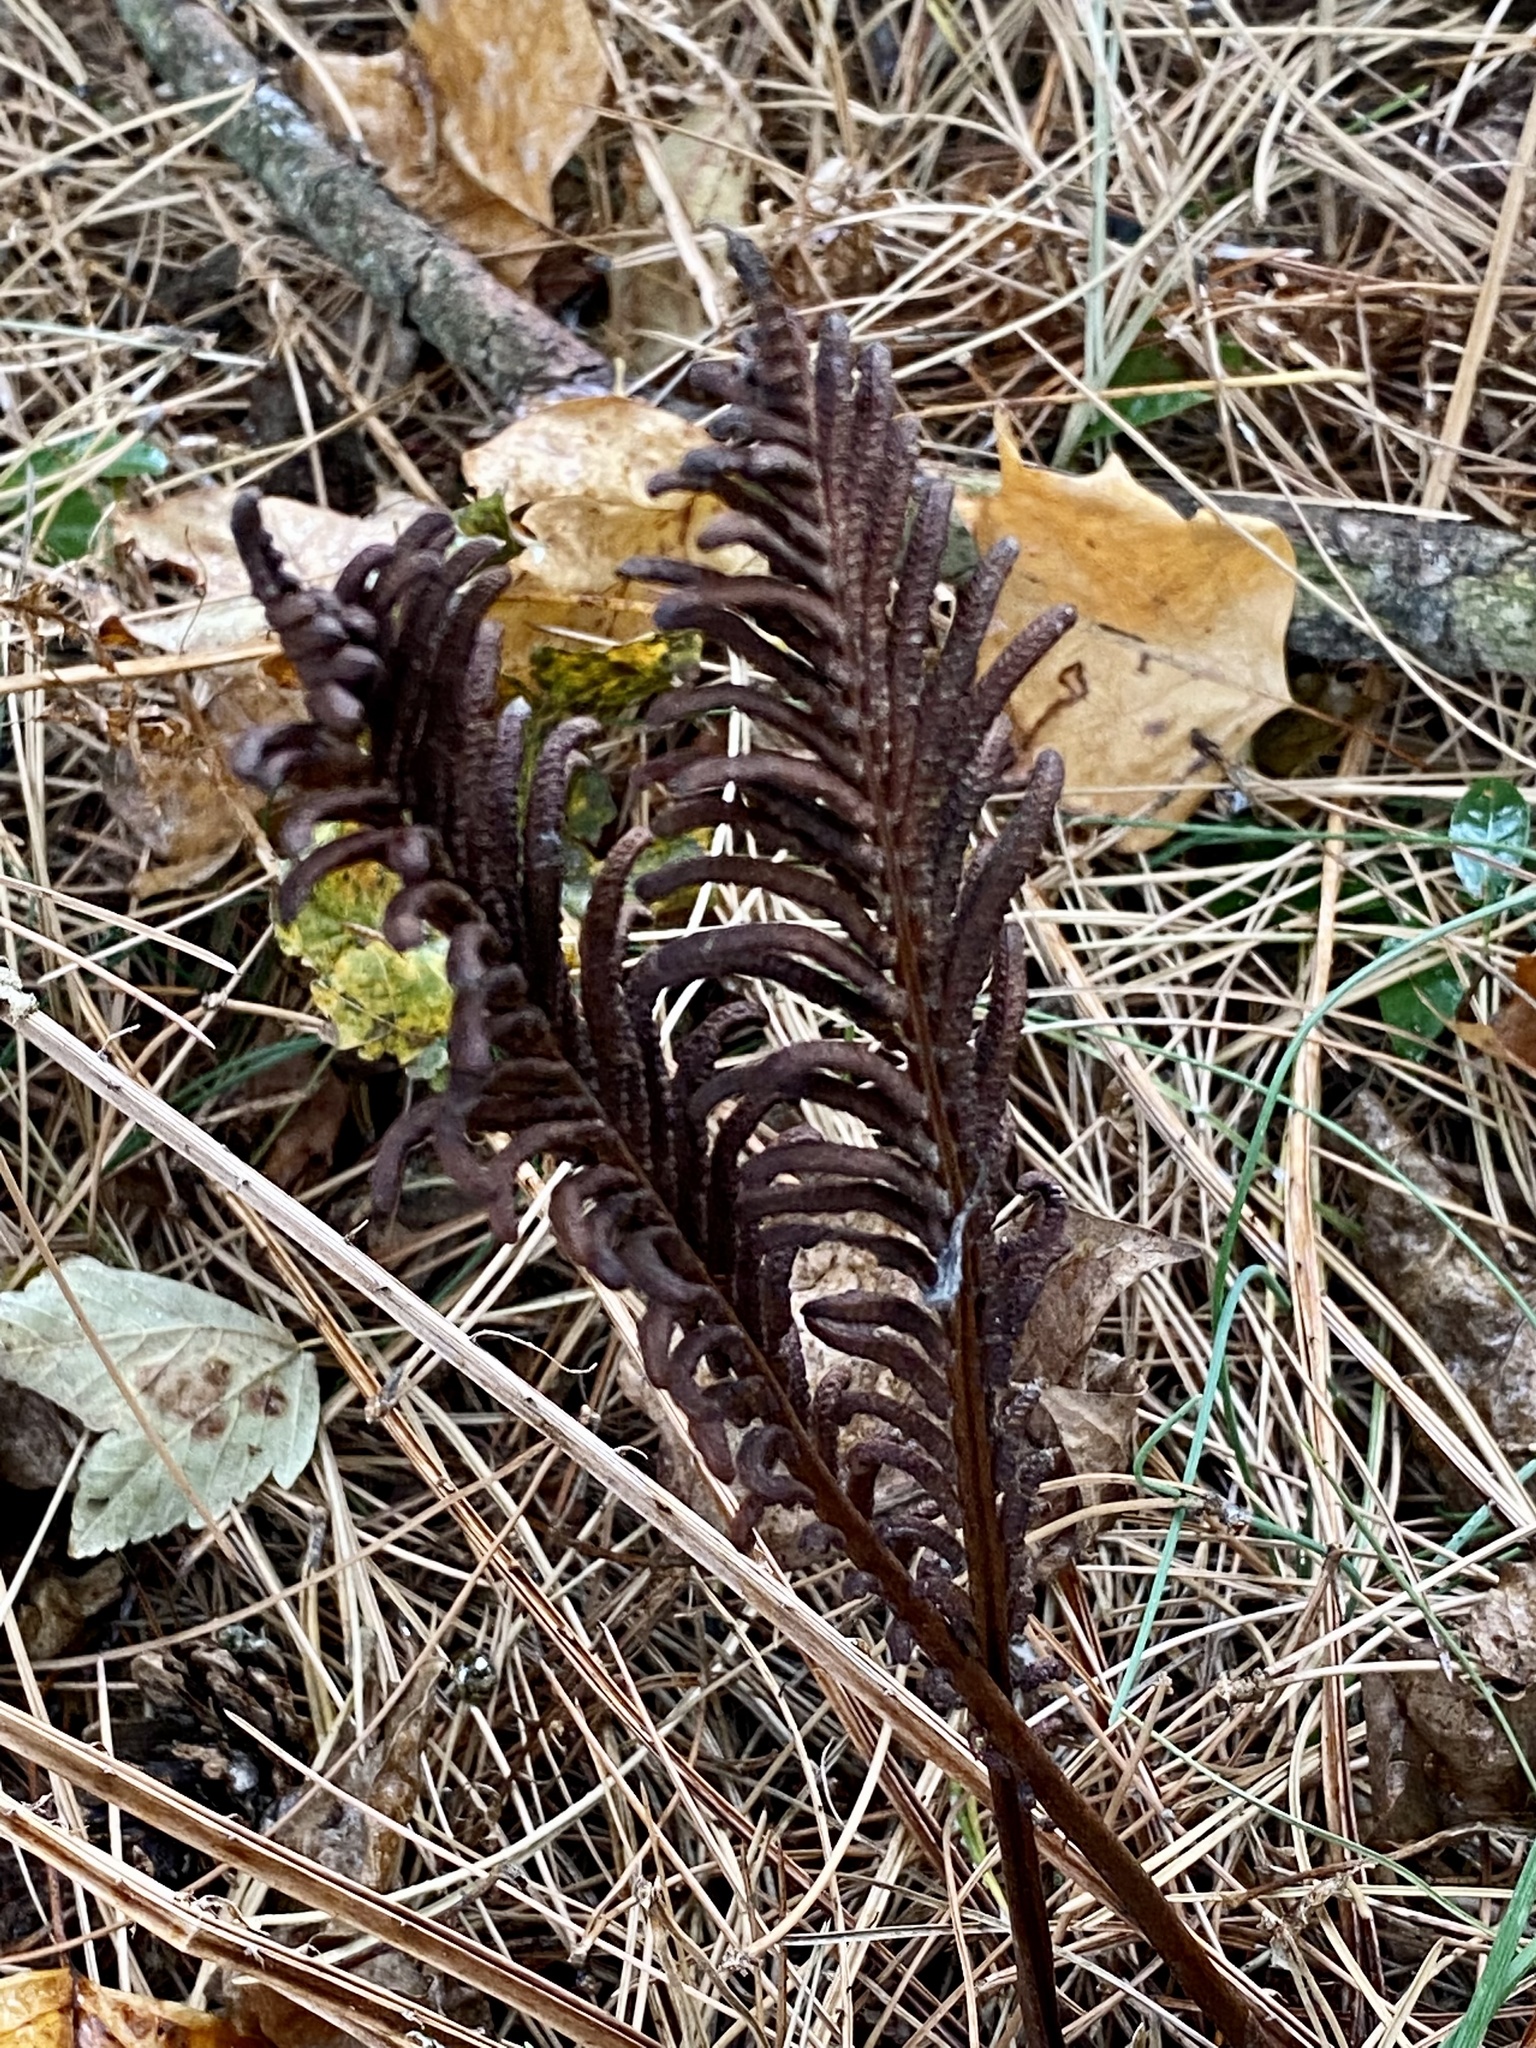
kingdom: Plantae
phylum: Tracheophyta
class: Polypodiopsida
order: Polypodiales
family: Onocleaceae
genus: Matteuccia
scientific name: Matteuccia struthiopteris
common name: Ostrich fern
